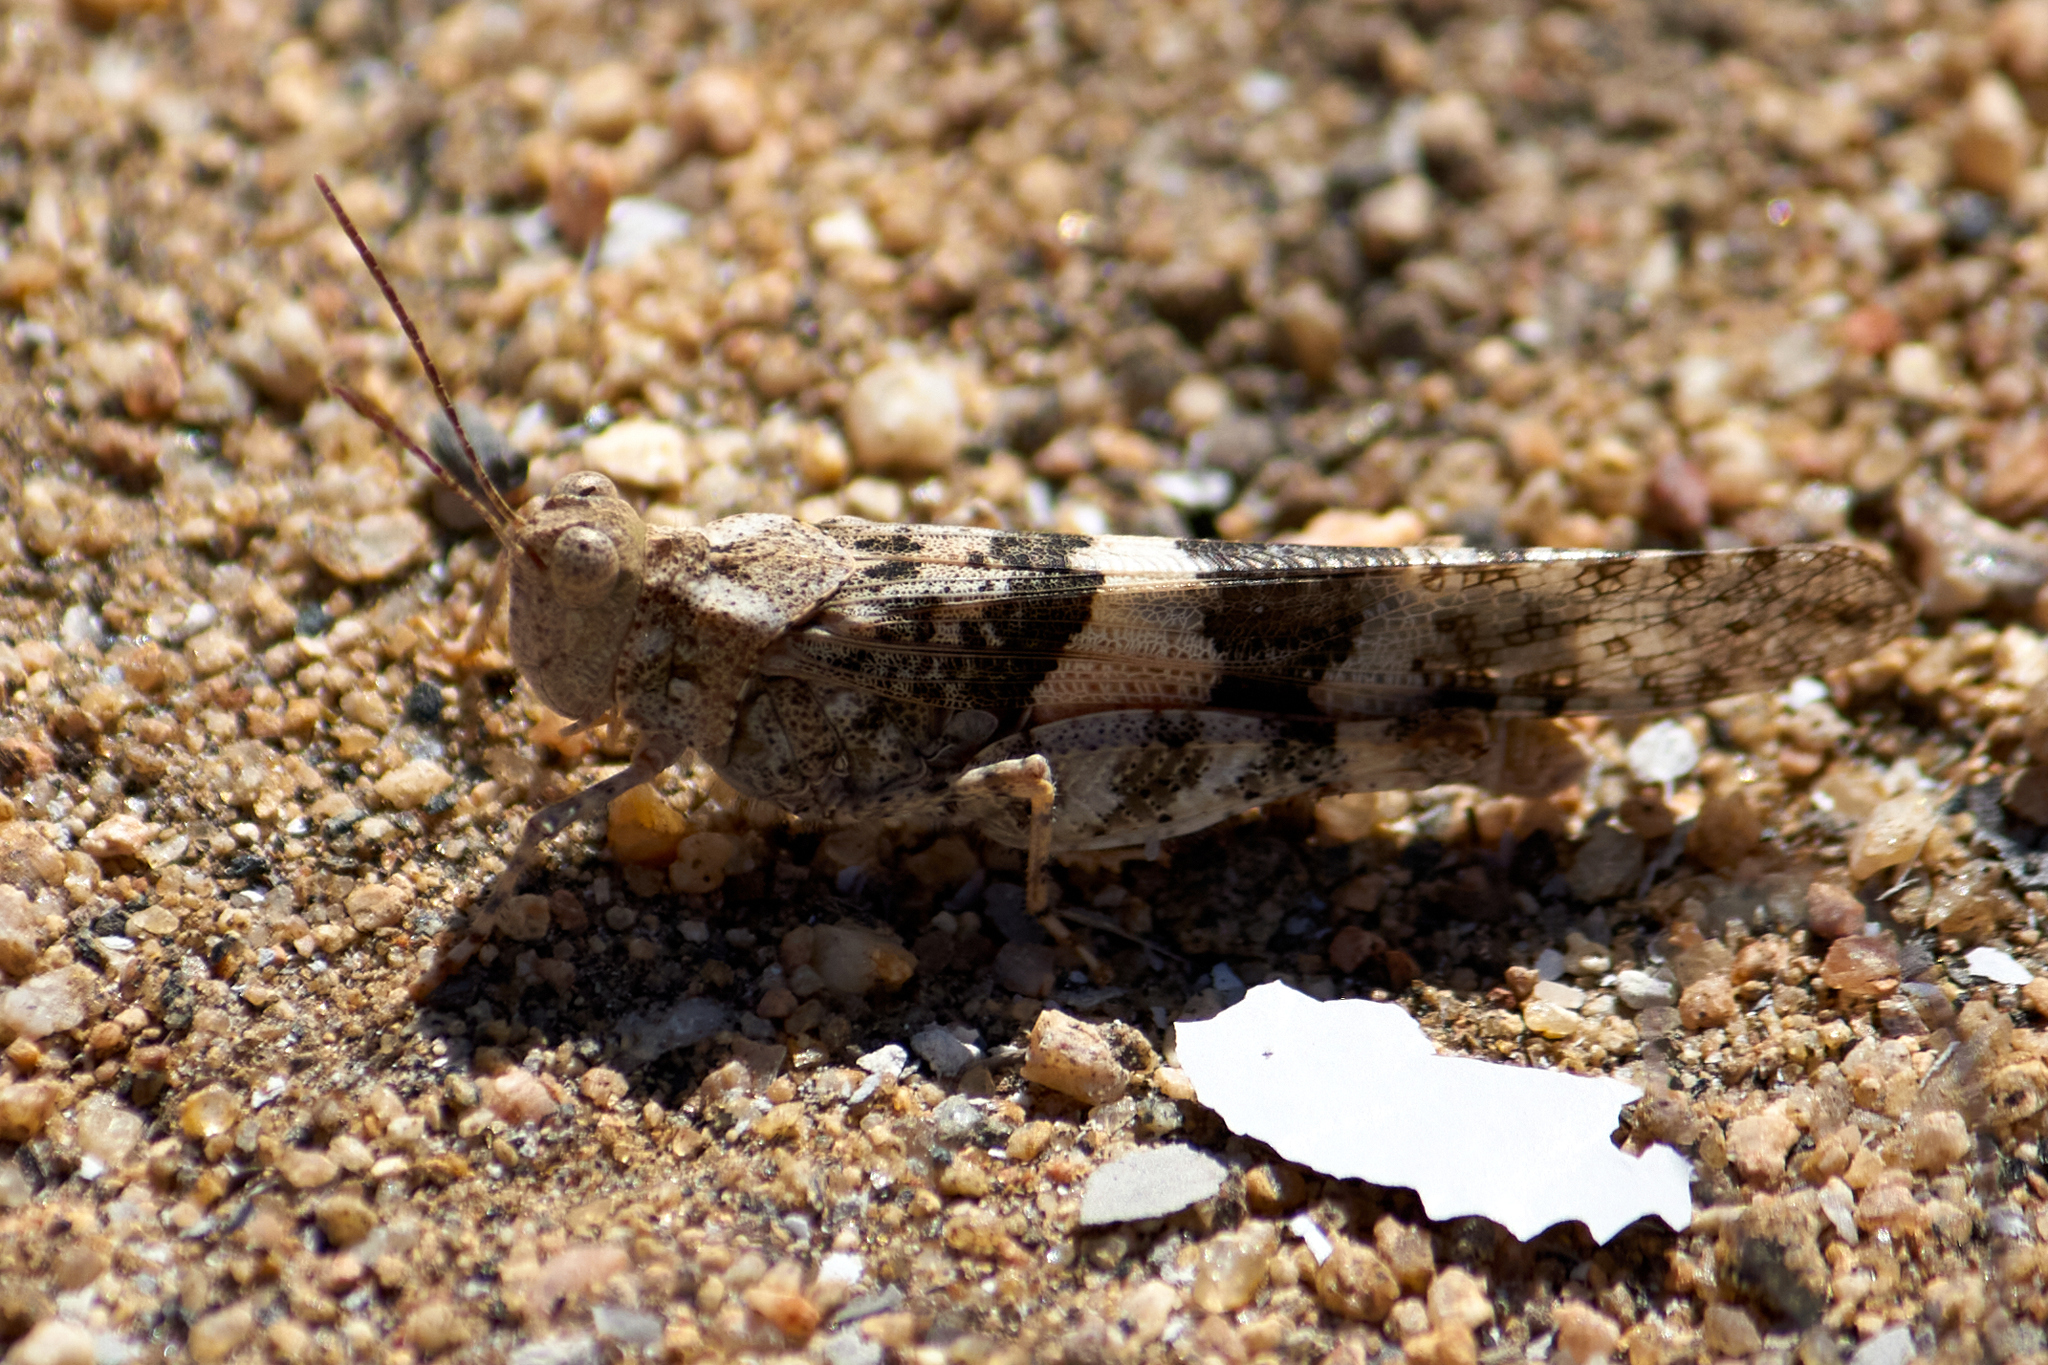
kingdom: Animalia
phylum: Arthropoda
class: Insecta
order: Orthoptera
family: Acrididae
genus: Trimerotropis
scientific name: Trimerotropis pallidipennis
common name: Pallid-winged grasshopper
